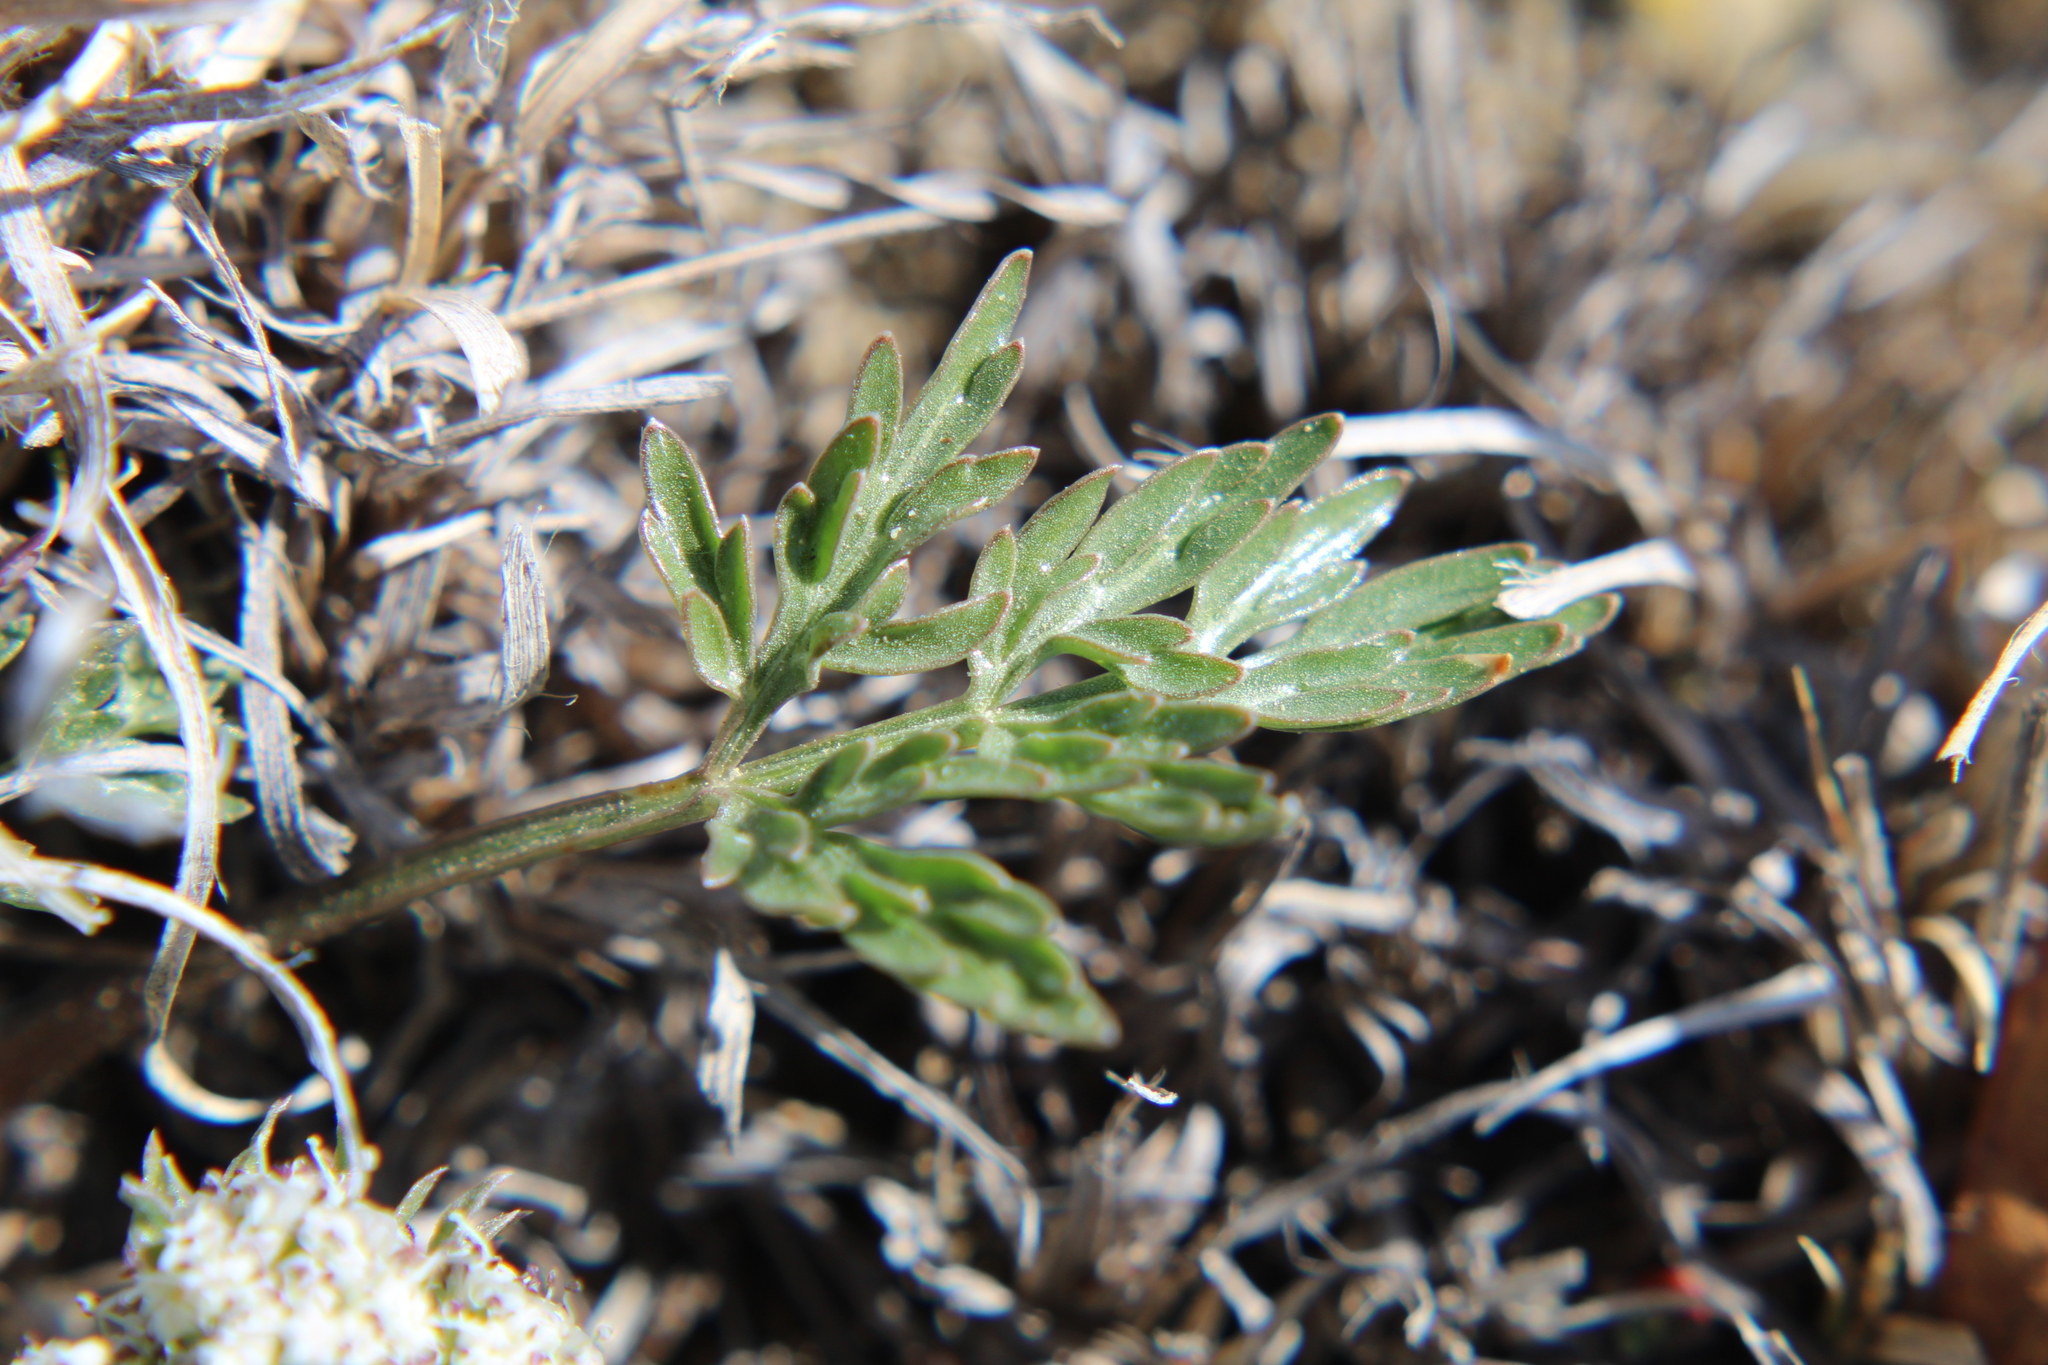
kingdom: Plantae
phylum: Tracheophyta
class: Magnoliopsida
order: Apiales
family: Apiaceae
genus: Lomatium
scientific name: Lomatium orientale
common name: Eastern cous
